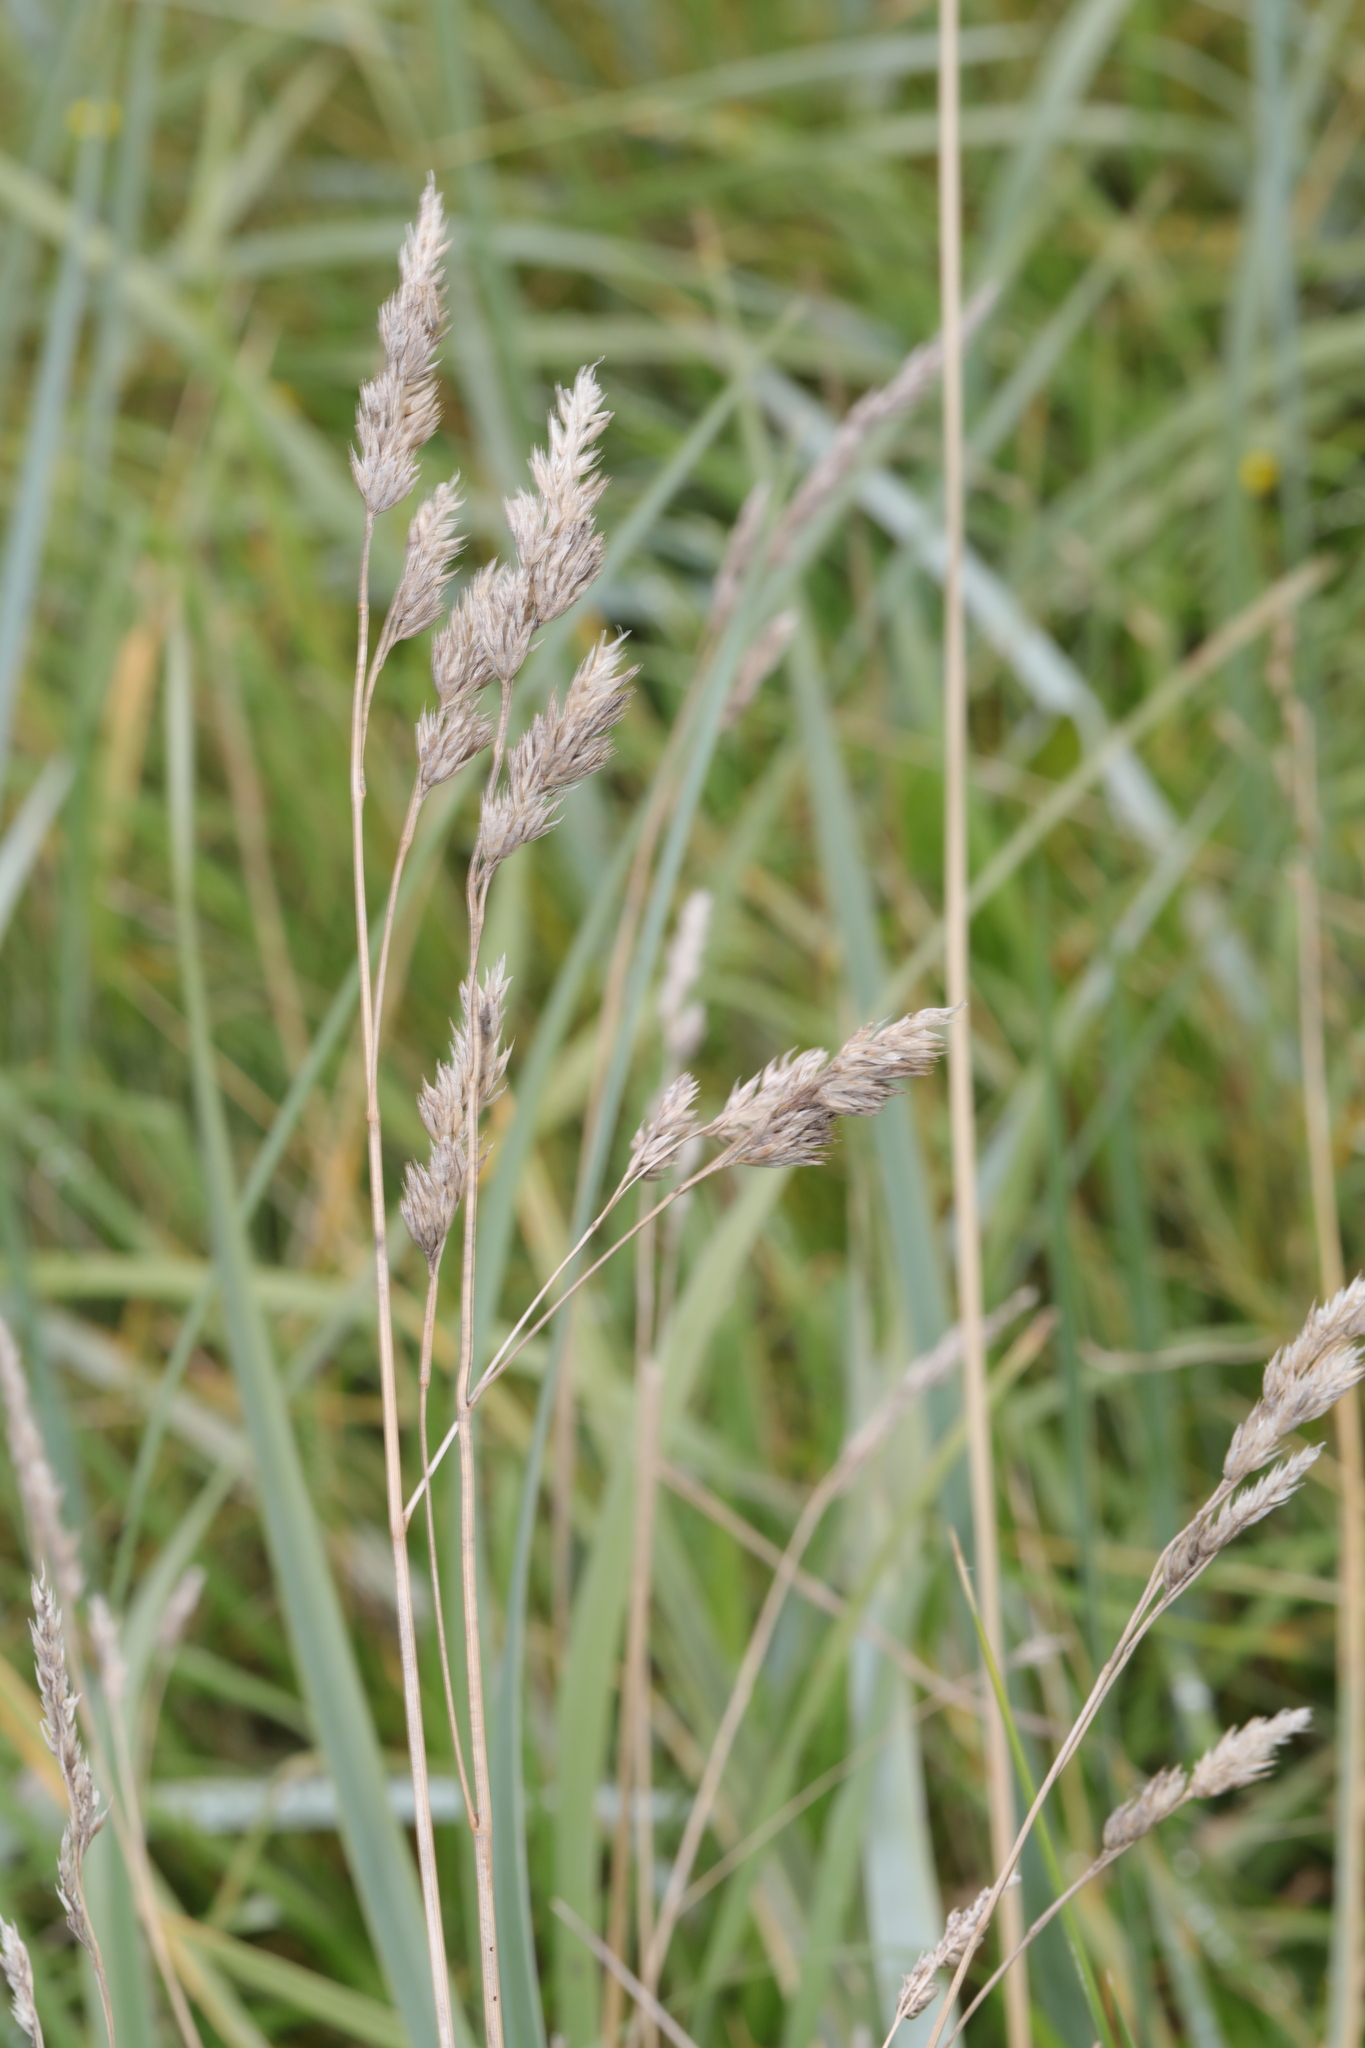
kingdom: Plantae
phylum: Tracheophyta
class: Liliopsida
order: Poales
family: Poaceae
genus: Dactylis
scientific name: Dactylis glomerata
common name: Orchardgrass
